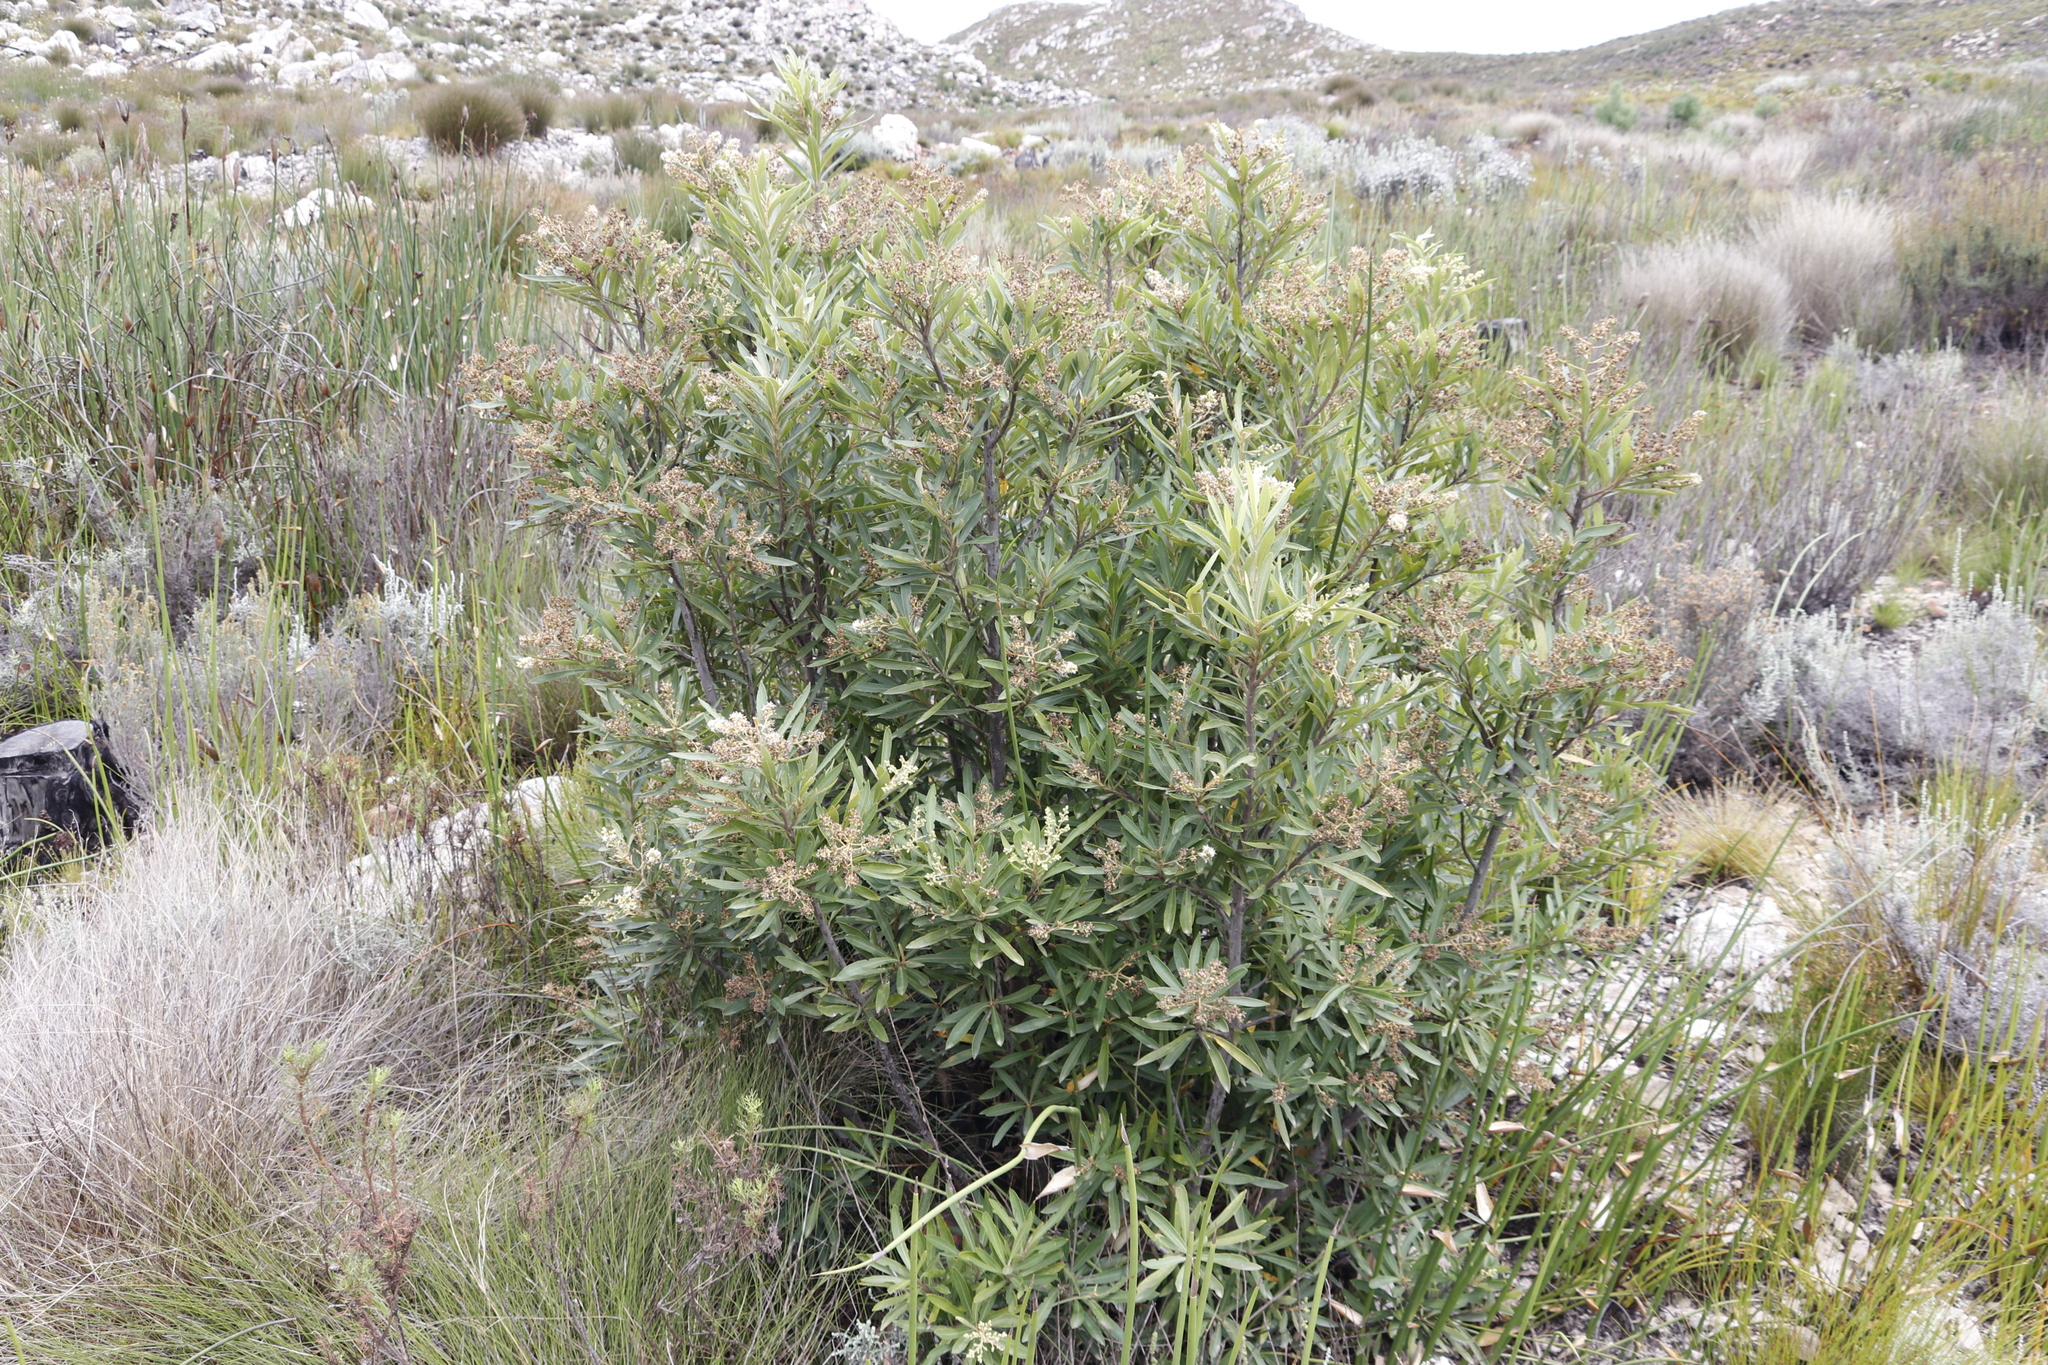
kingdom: Plantae
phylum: Tracheophyta
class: Magnoliopsida
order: Asterales
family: Asteraceae
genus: Brachylaena
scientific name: Brachylaena neriifolia
